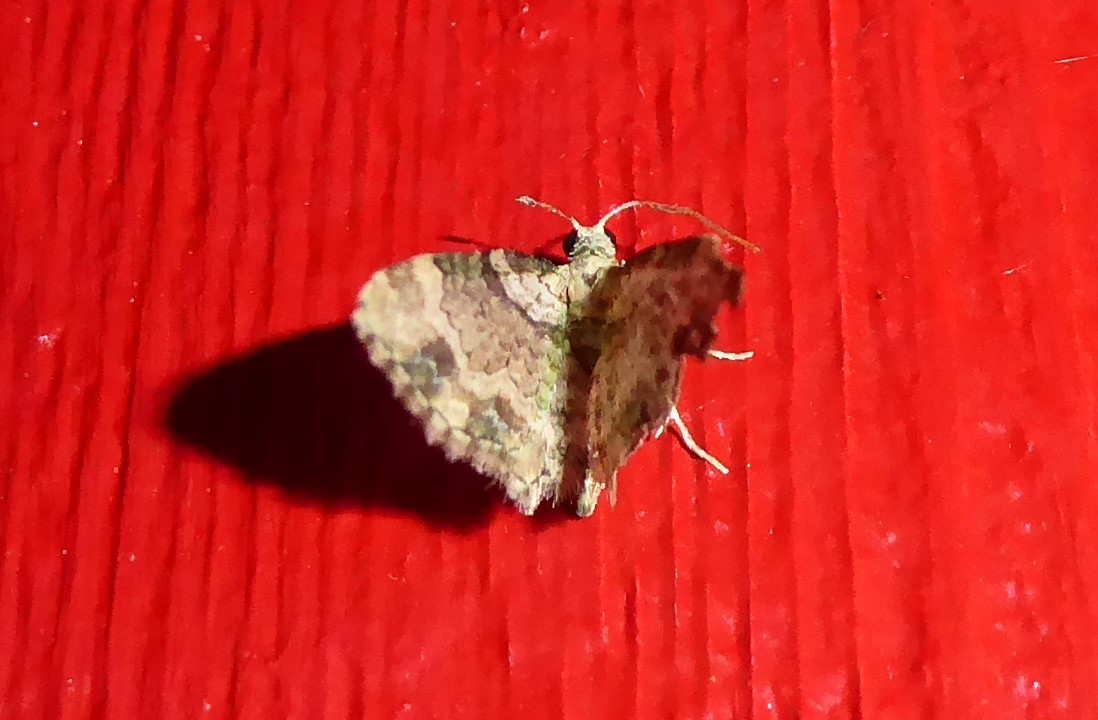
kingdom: Animalia
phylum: Arthropoda
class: Insecta
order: Lepidoptera
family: Geometridae
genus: Chloroclystis
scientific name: Chloroclystis
